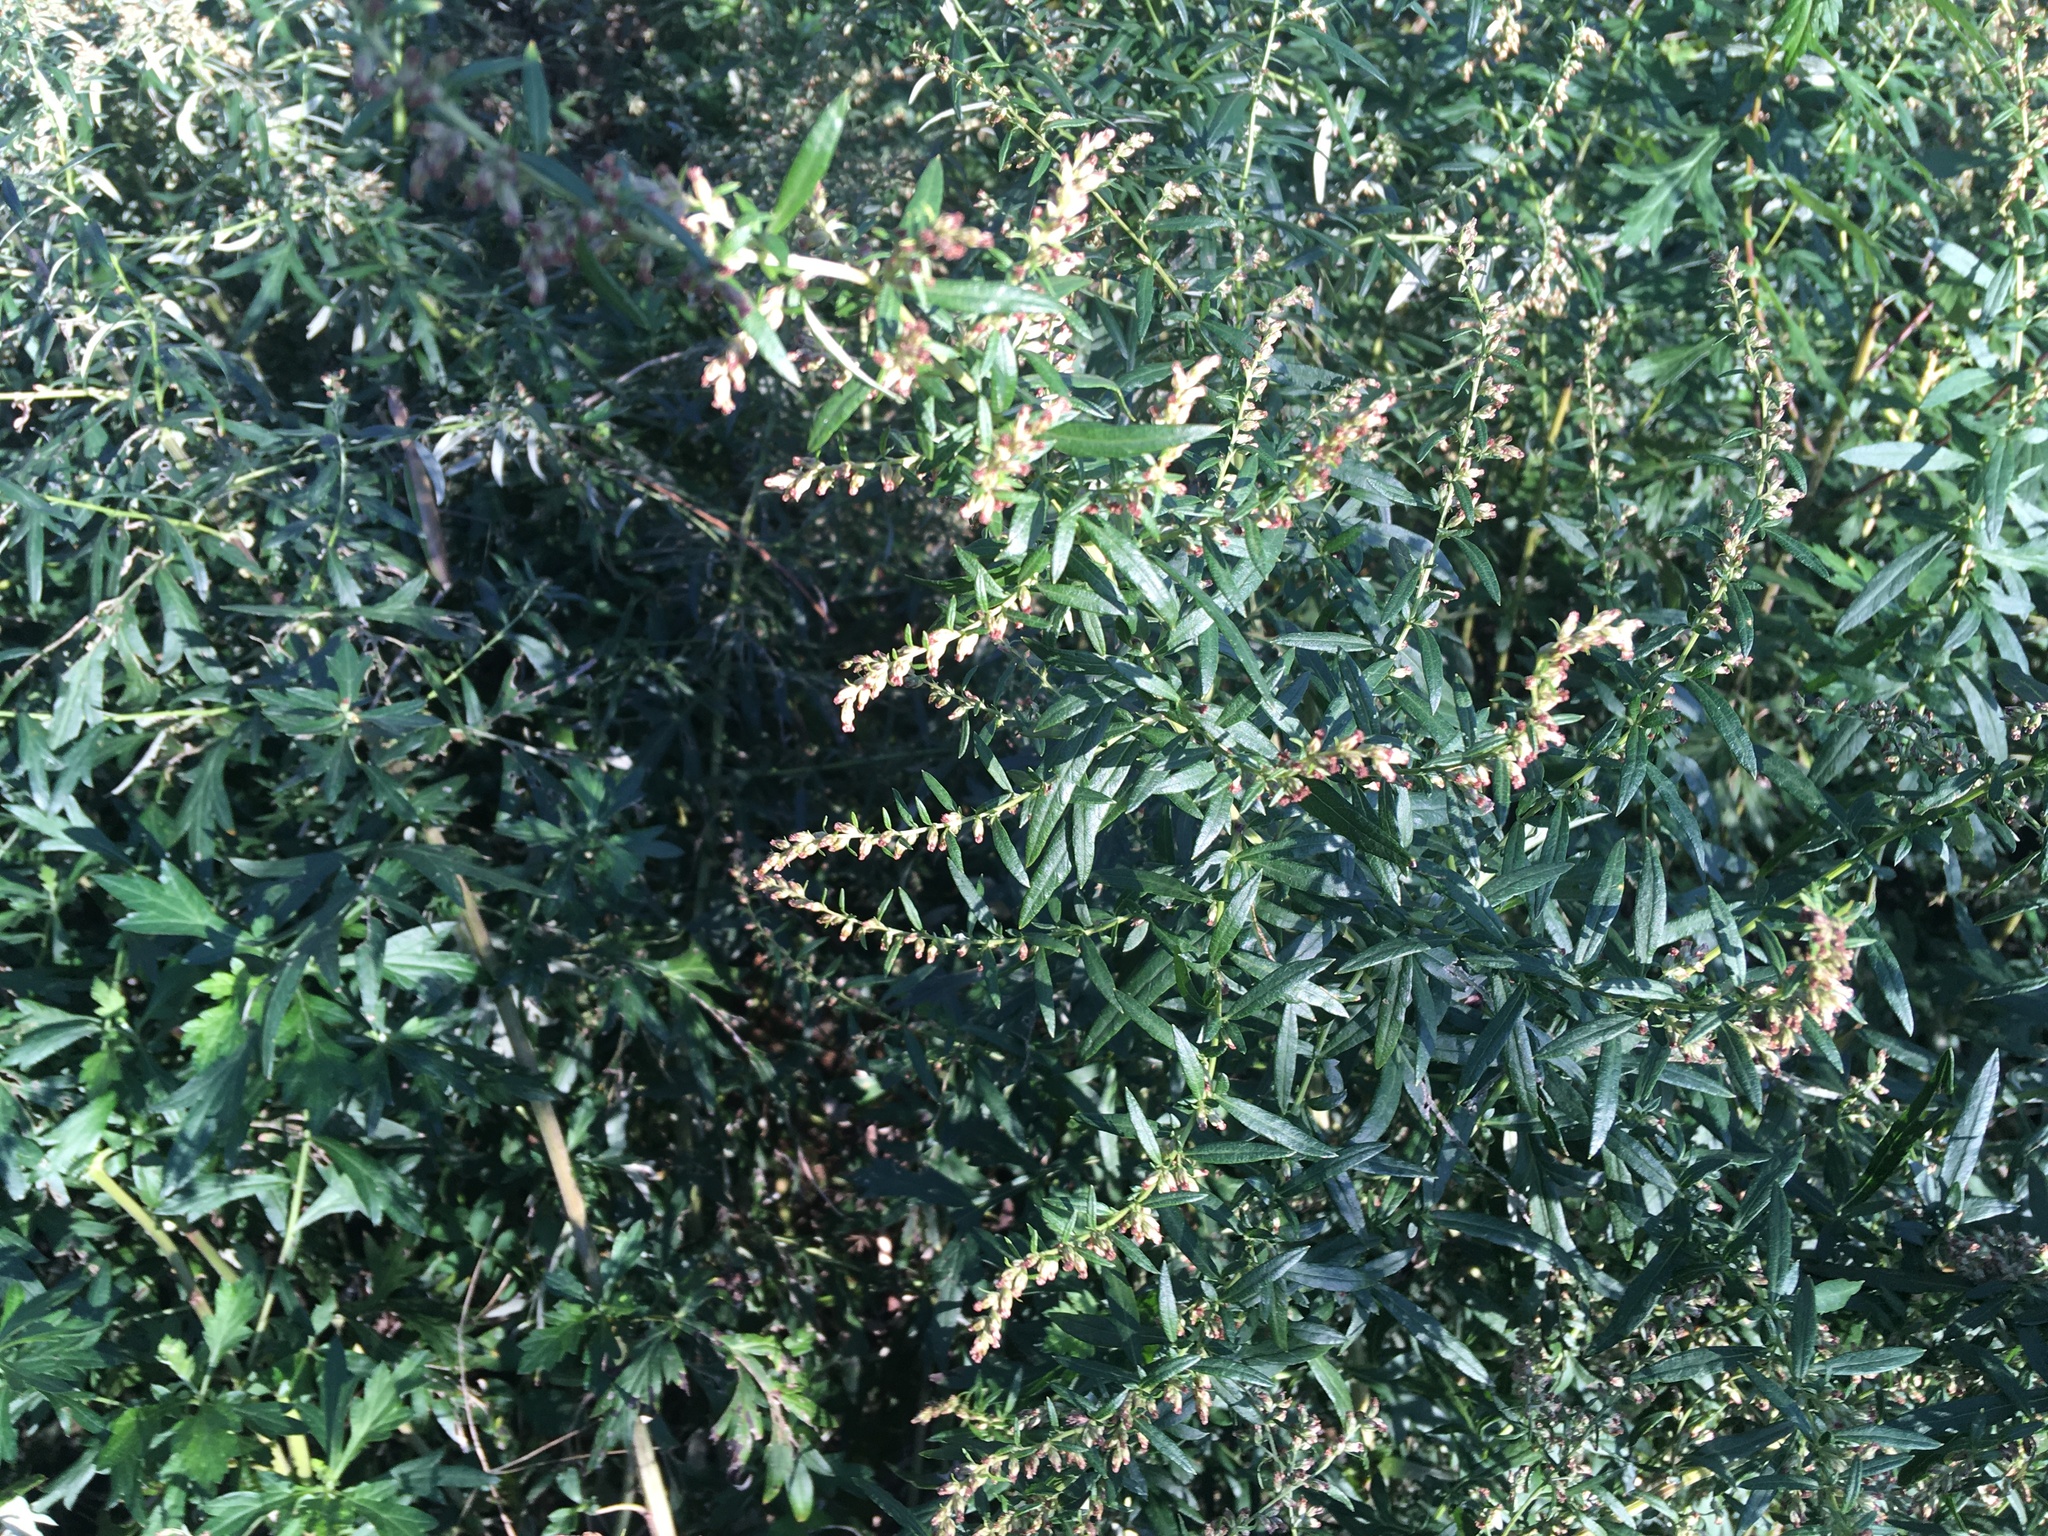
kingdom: Plantae
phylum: Tracheophyta
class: Magnoliopsida
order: Asterales
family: Asteraceae
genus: Artemisia
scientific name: Artemisia vulgaris
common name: Mugwort
